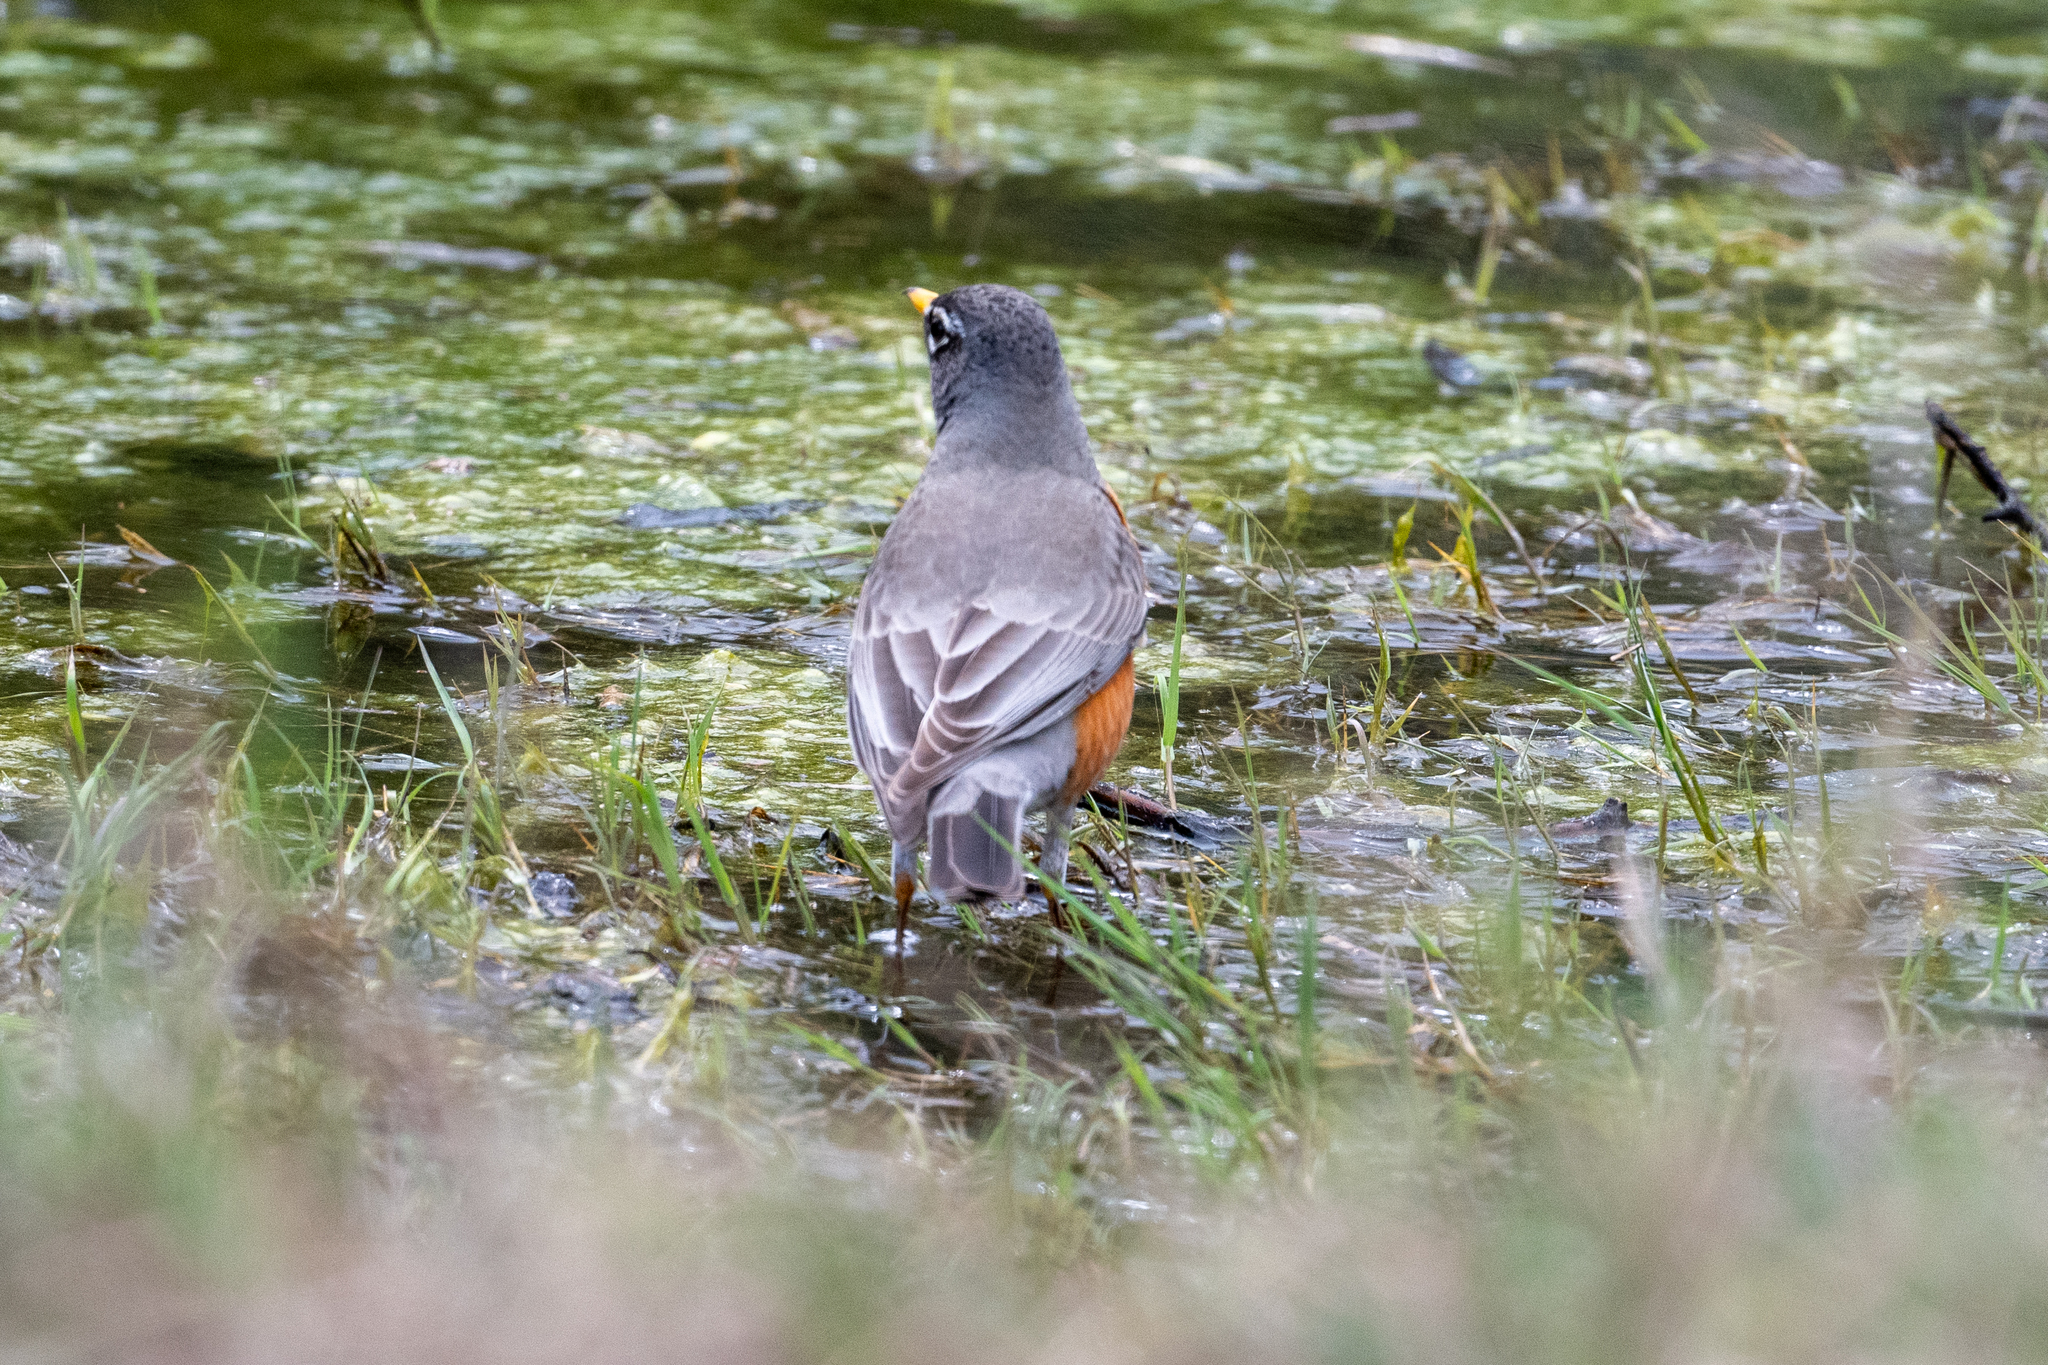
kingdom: Animalia
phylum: Chordata
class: Aves
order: Passeriformes
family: Turdidae
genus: Turdus
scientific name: Turdus migratorius
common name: American robin
